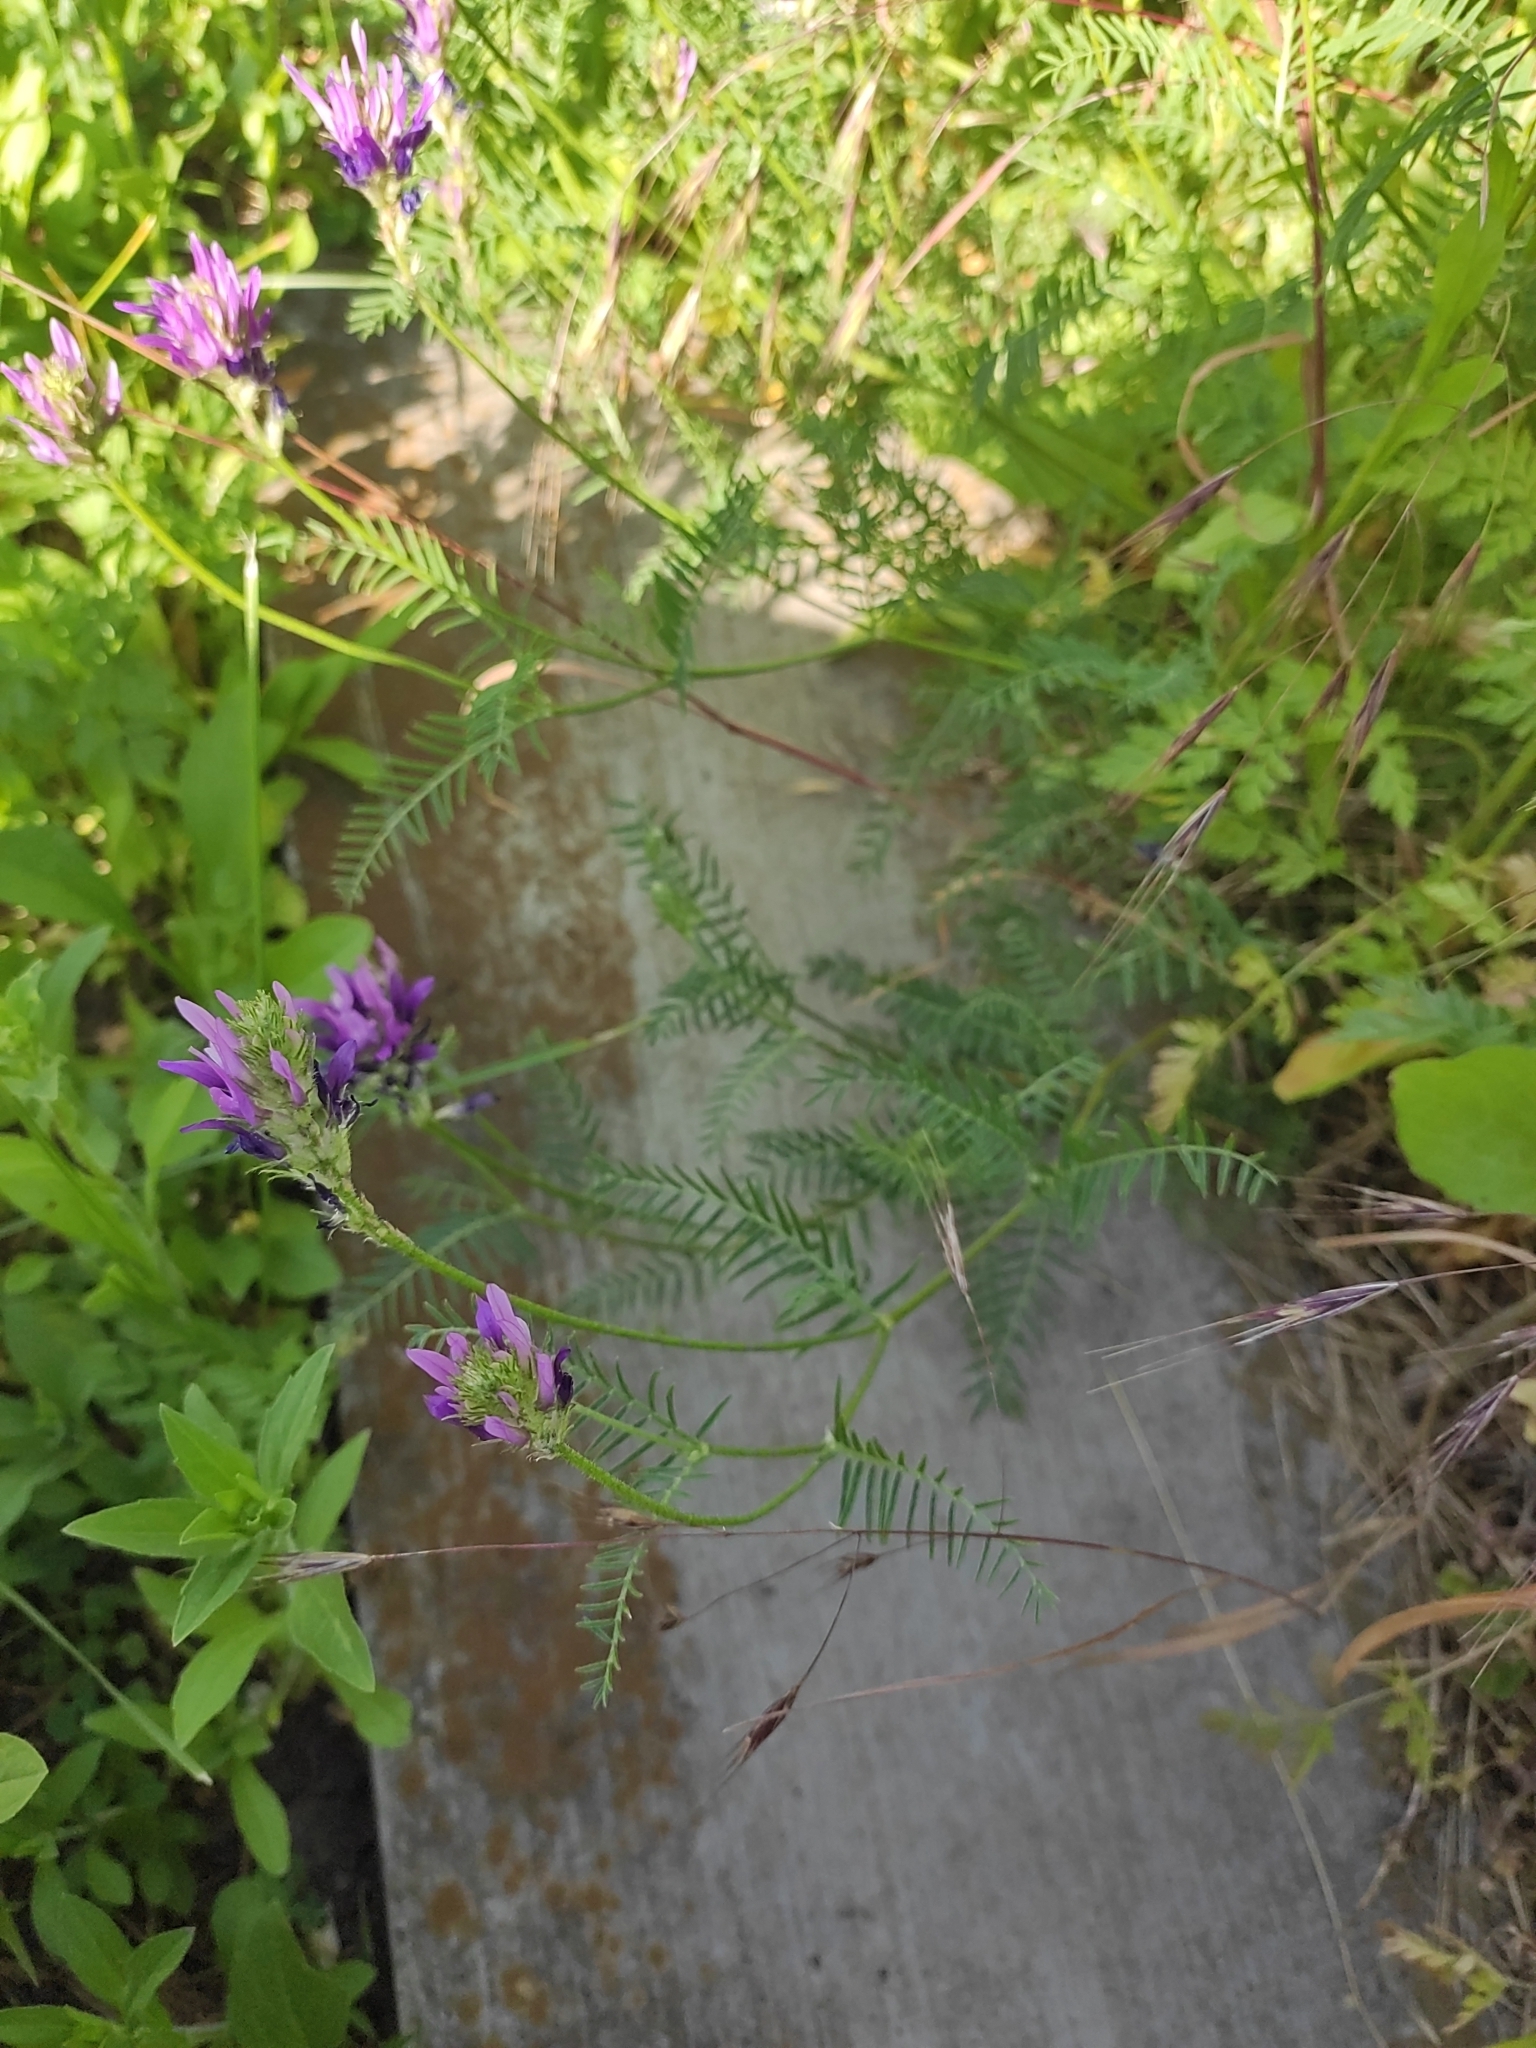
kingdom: Plantae
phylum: Tracheophyta
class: Magnoliopsida
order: Fabales
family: Fabaceae
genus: Astragalus
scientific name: Astragalus onobrychis
